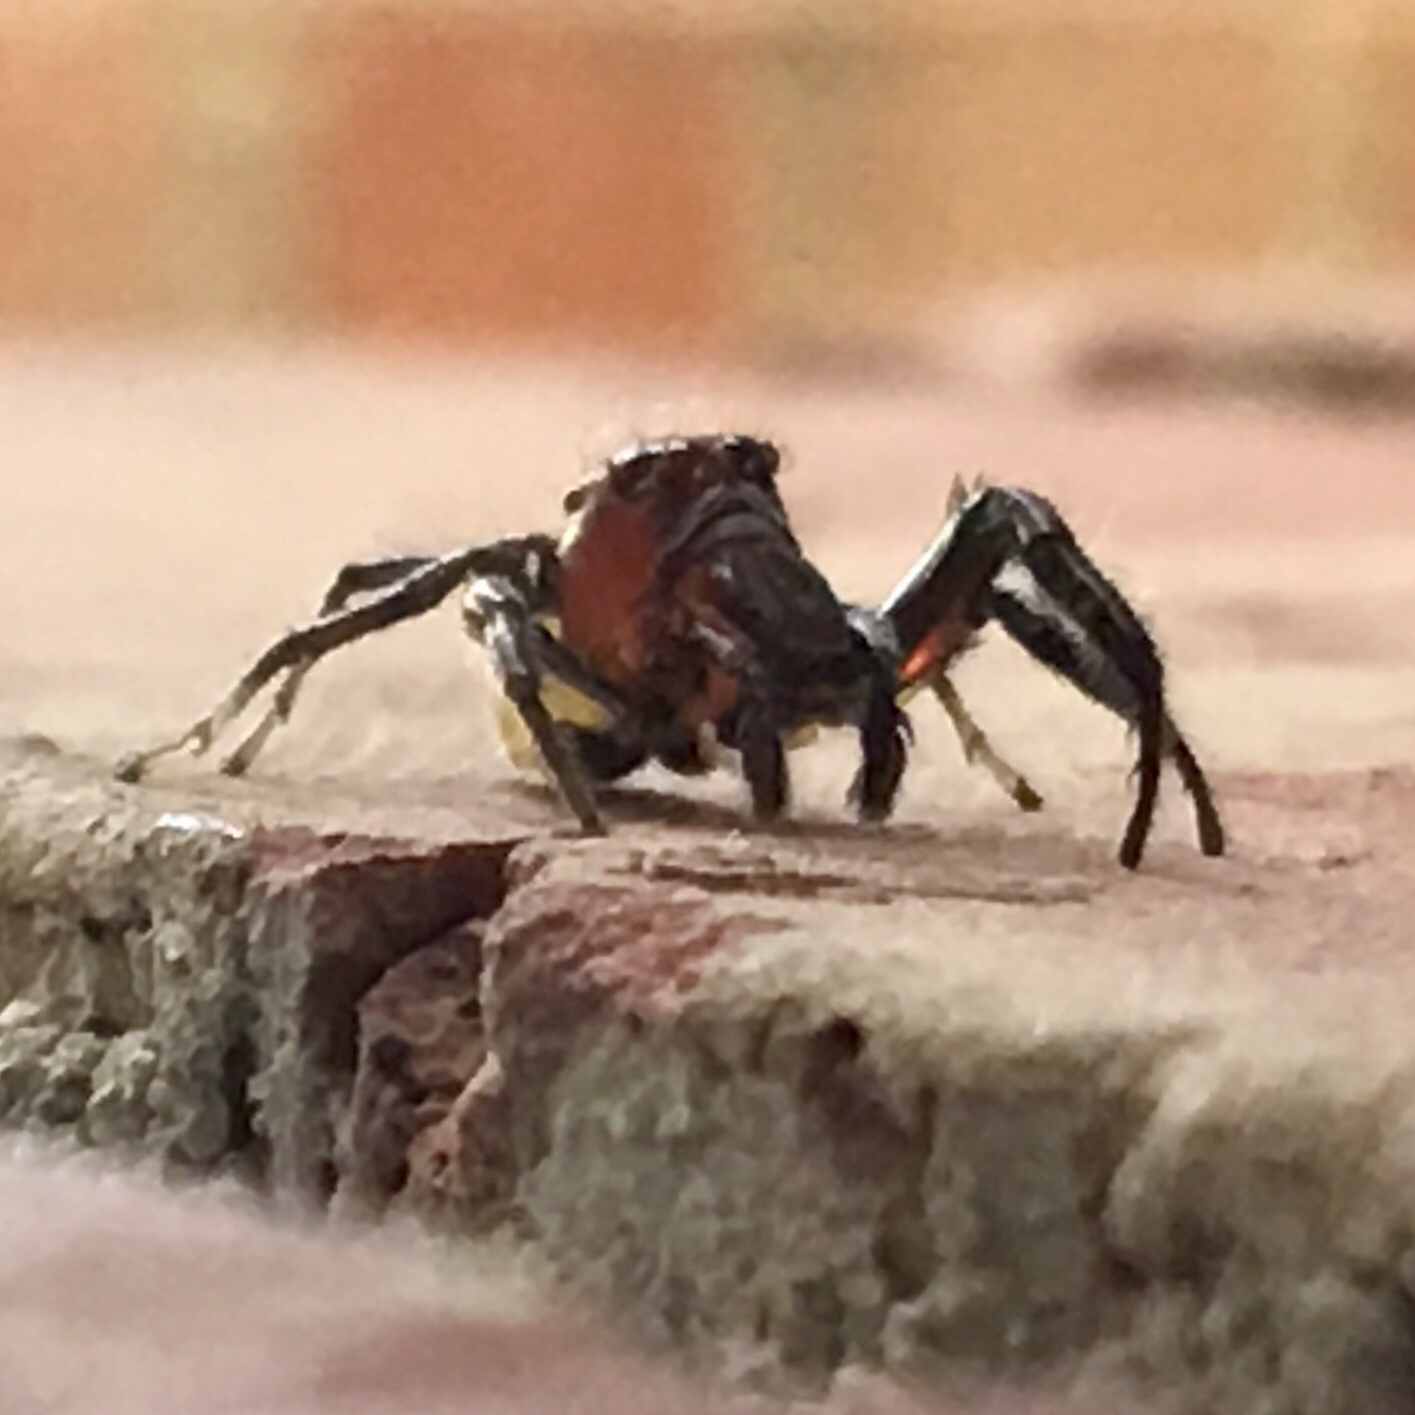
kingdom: Animalia
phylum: Arthropoda
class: Arachnida
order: Araneae
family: Salticidae
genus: Colonus
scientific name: Colonus sylvanus
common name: Jumping spiders
